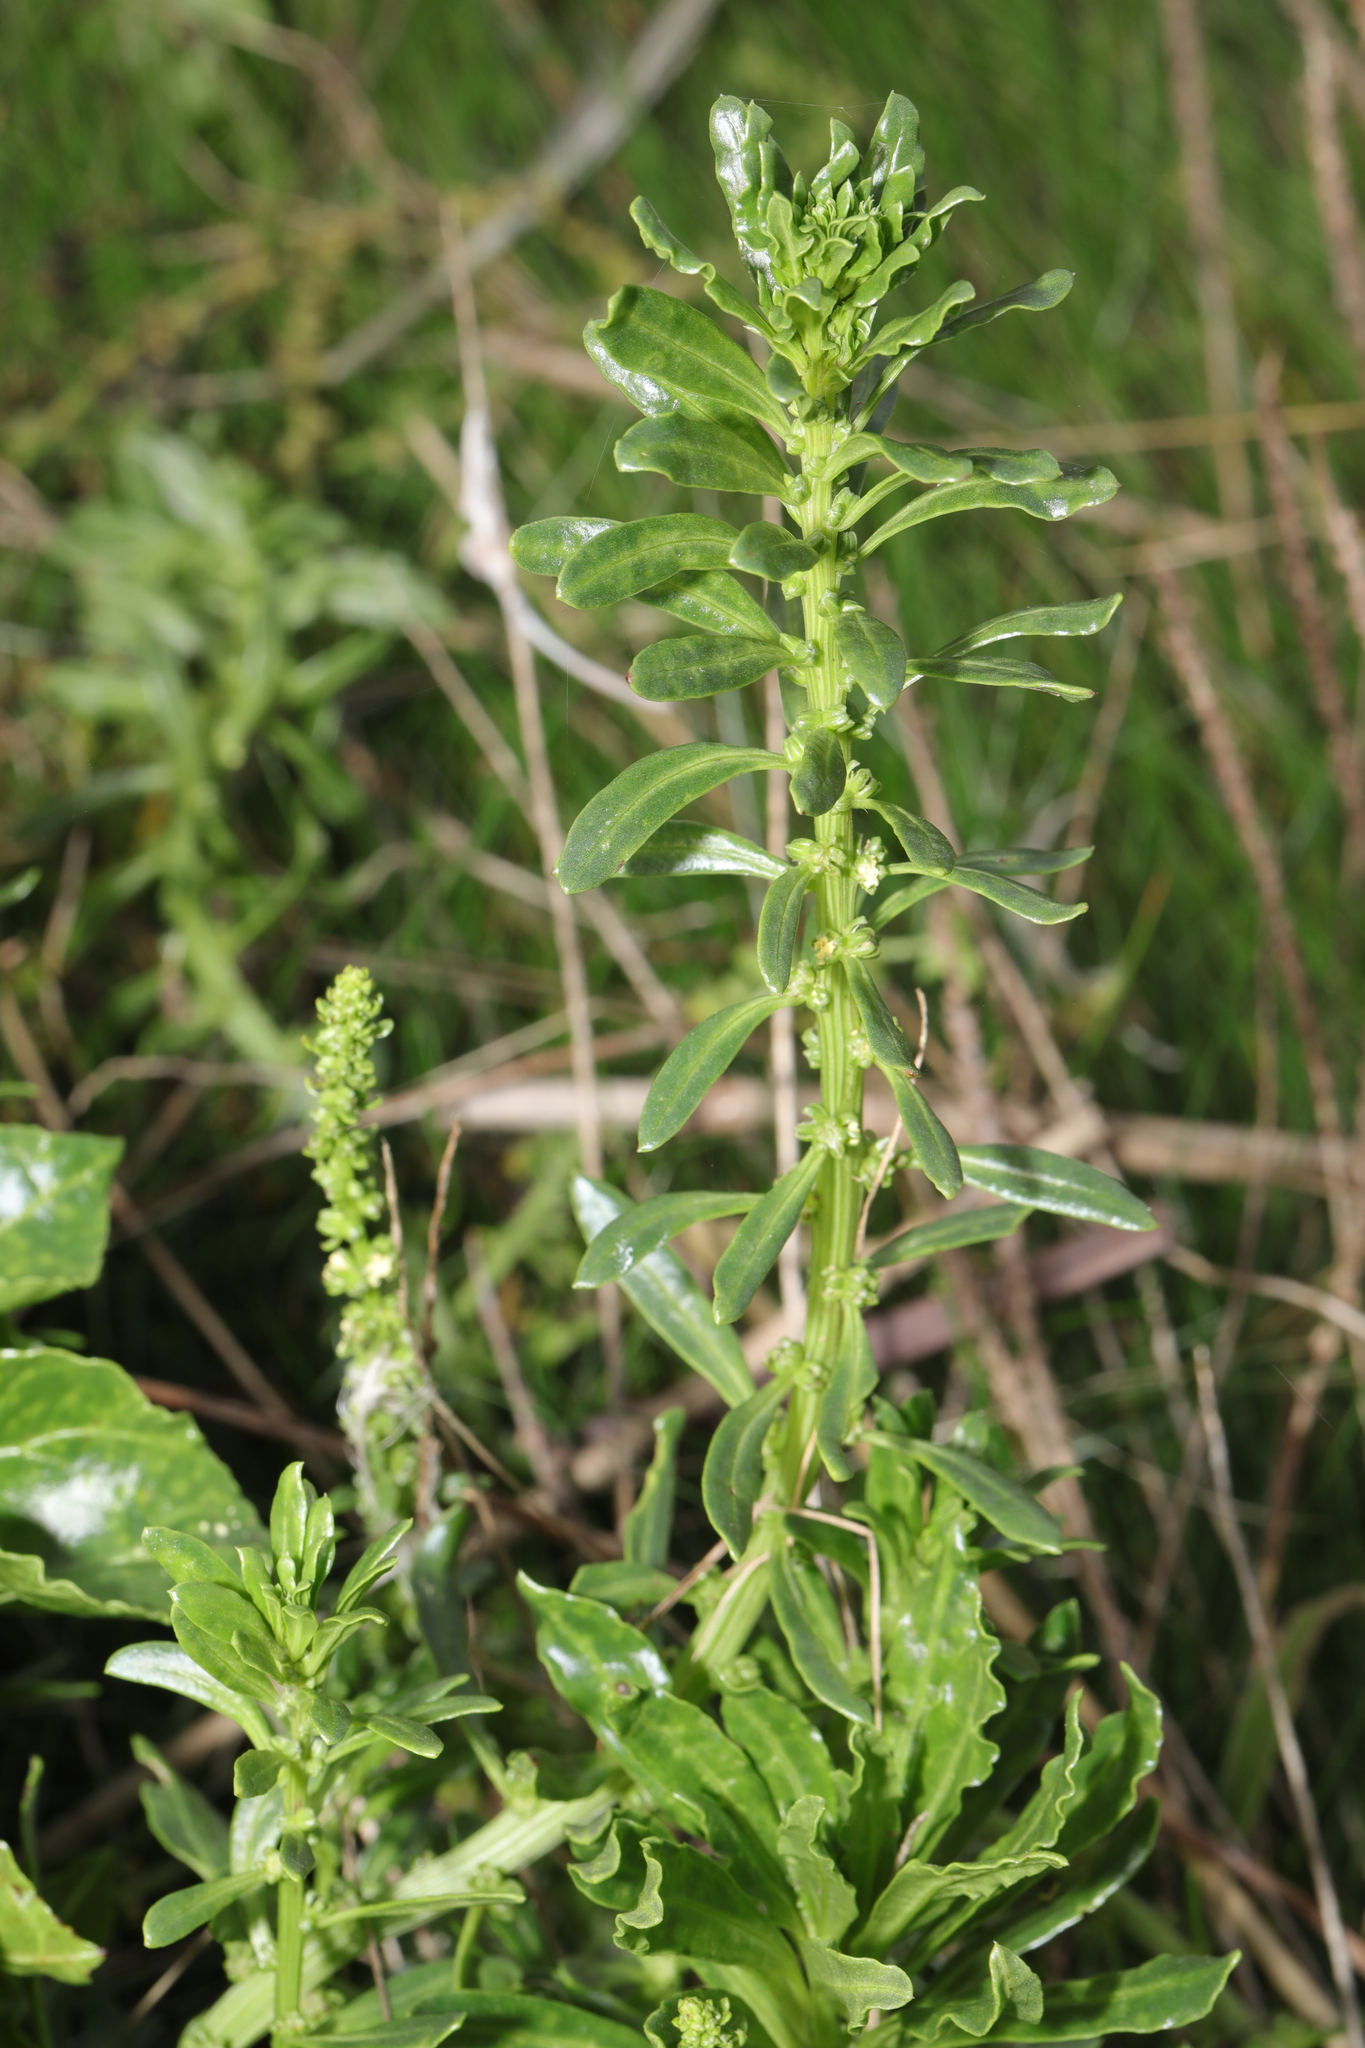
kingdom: Plantae
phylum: Tracheophyta
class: Magnoliopsida
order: Caryophyllales
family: Amaranthaceae
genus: Beta
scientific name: Beta vulgaris
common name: Beet
